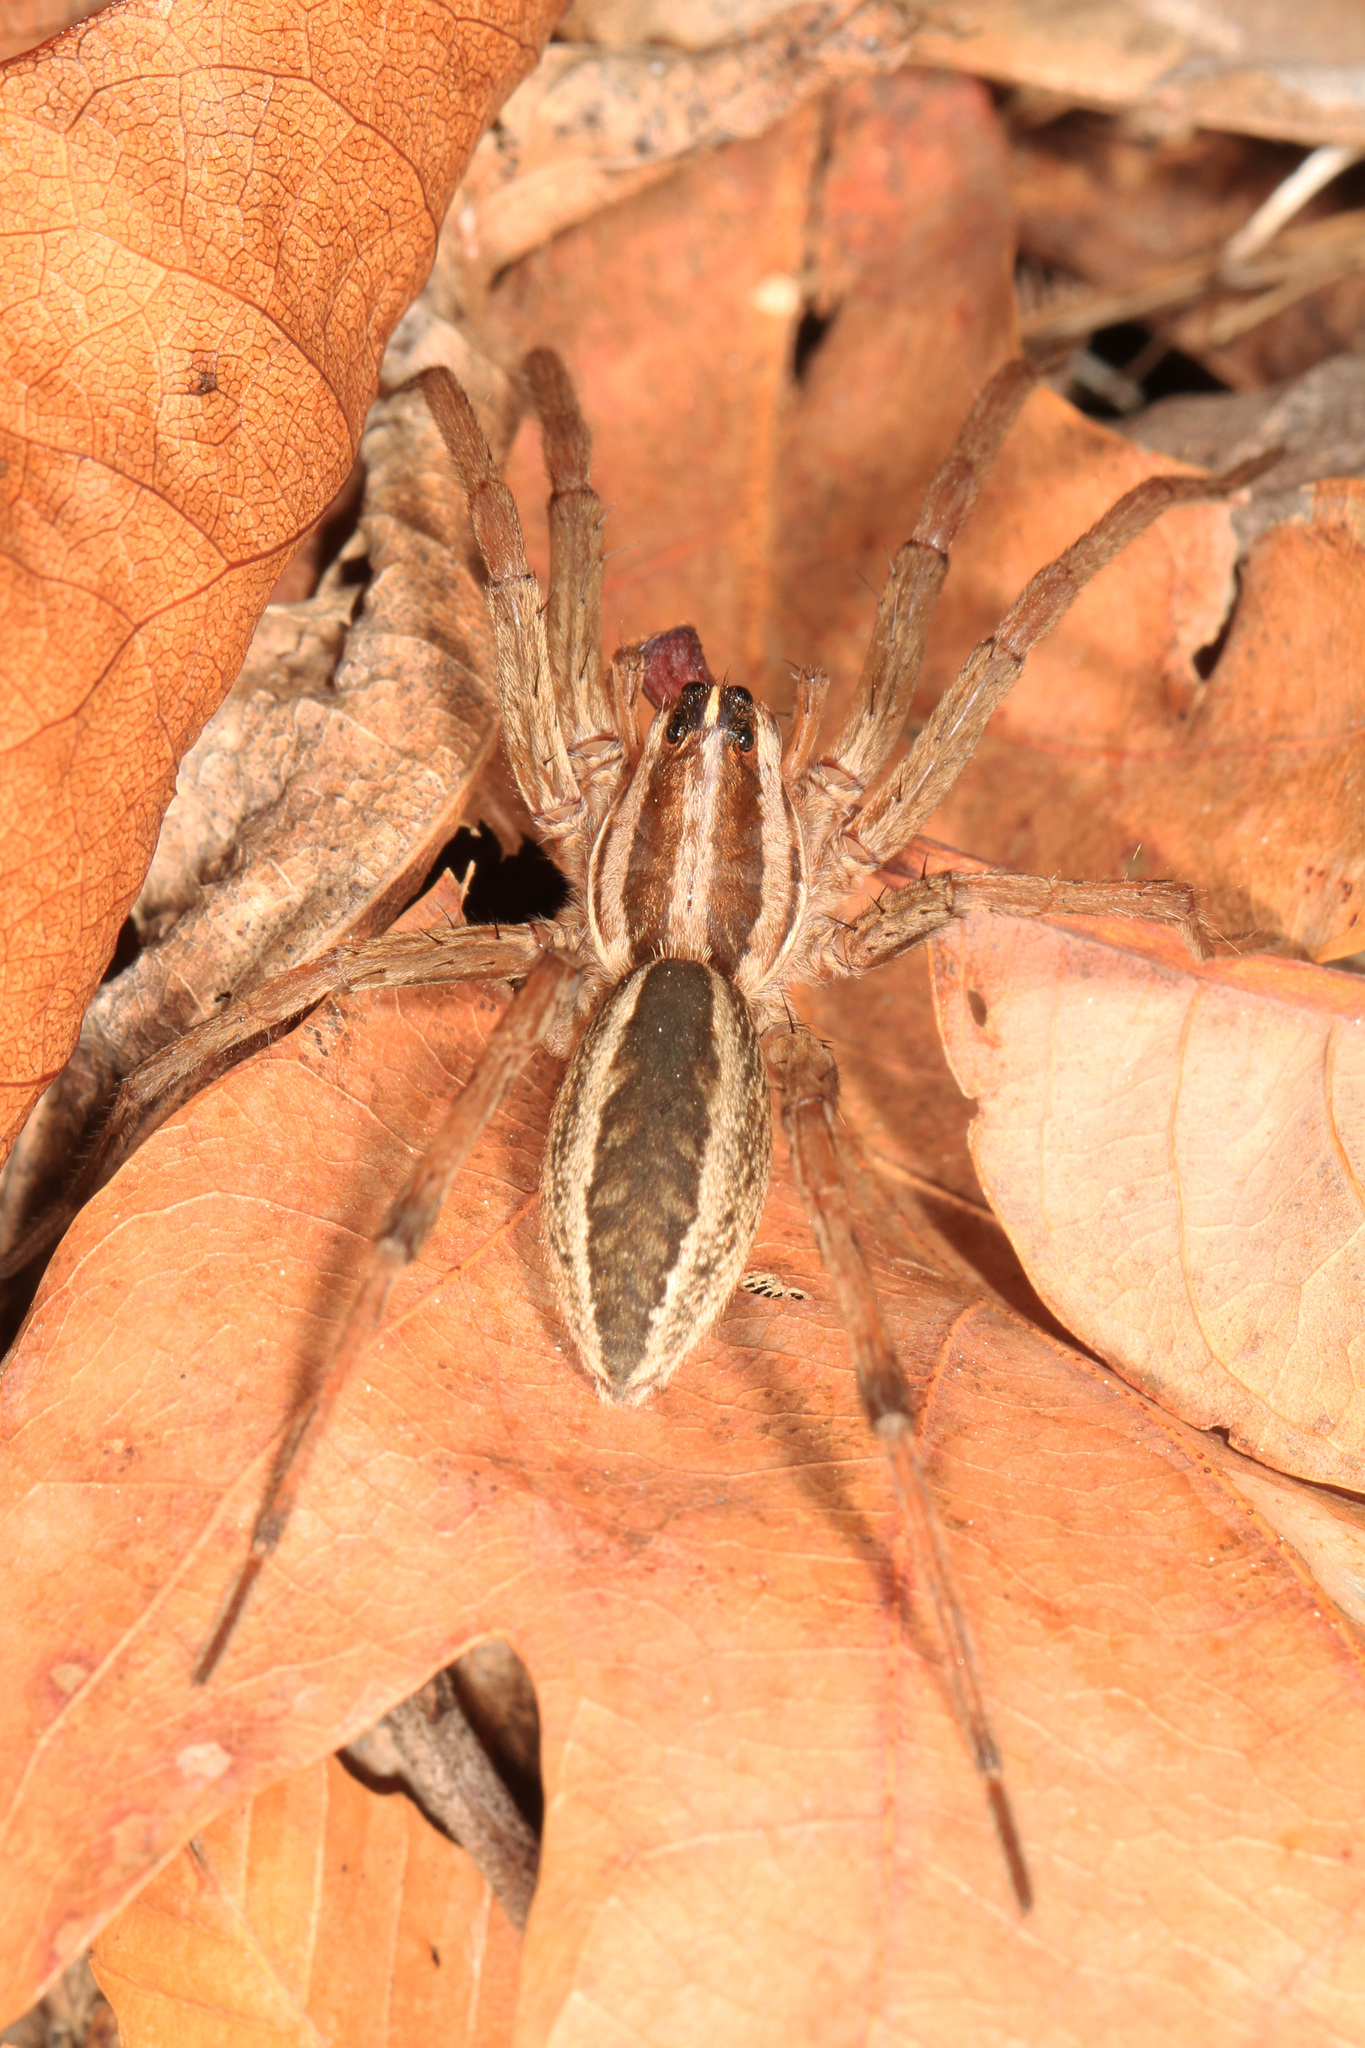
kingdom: Animalia
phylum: Arthropoda
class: Arachnida
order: Araneae
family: Lycosidae
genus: Rabidosa
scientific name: Rabidosa rabida
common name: Rabid wolf spider
